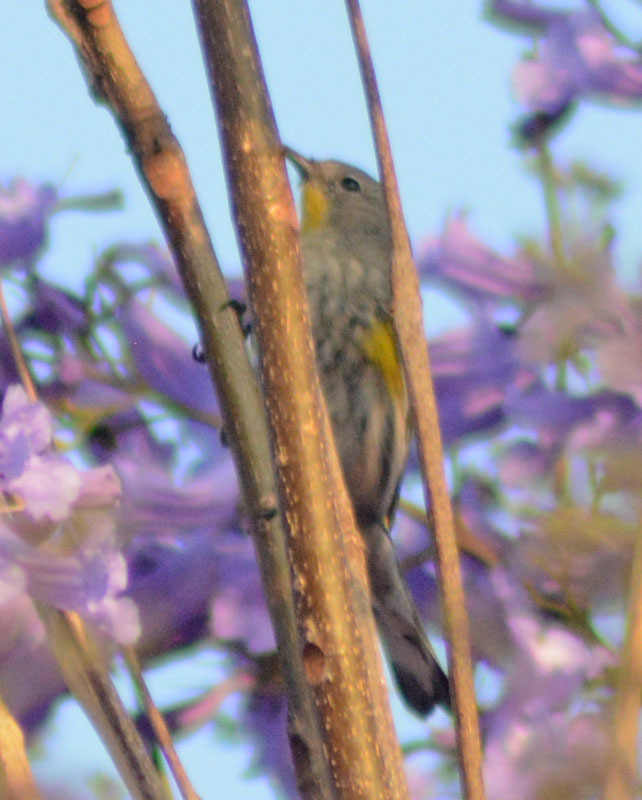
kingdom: Animalia
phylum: Chordata
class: Aves
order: Passeriformes
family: Parulidae
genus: Setophaga
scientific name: Setophaga auduboni
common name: Audubon's warbler
